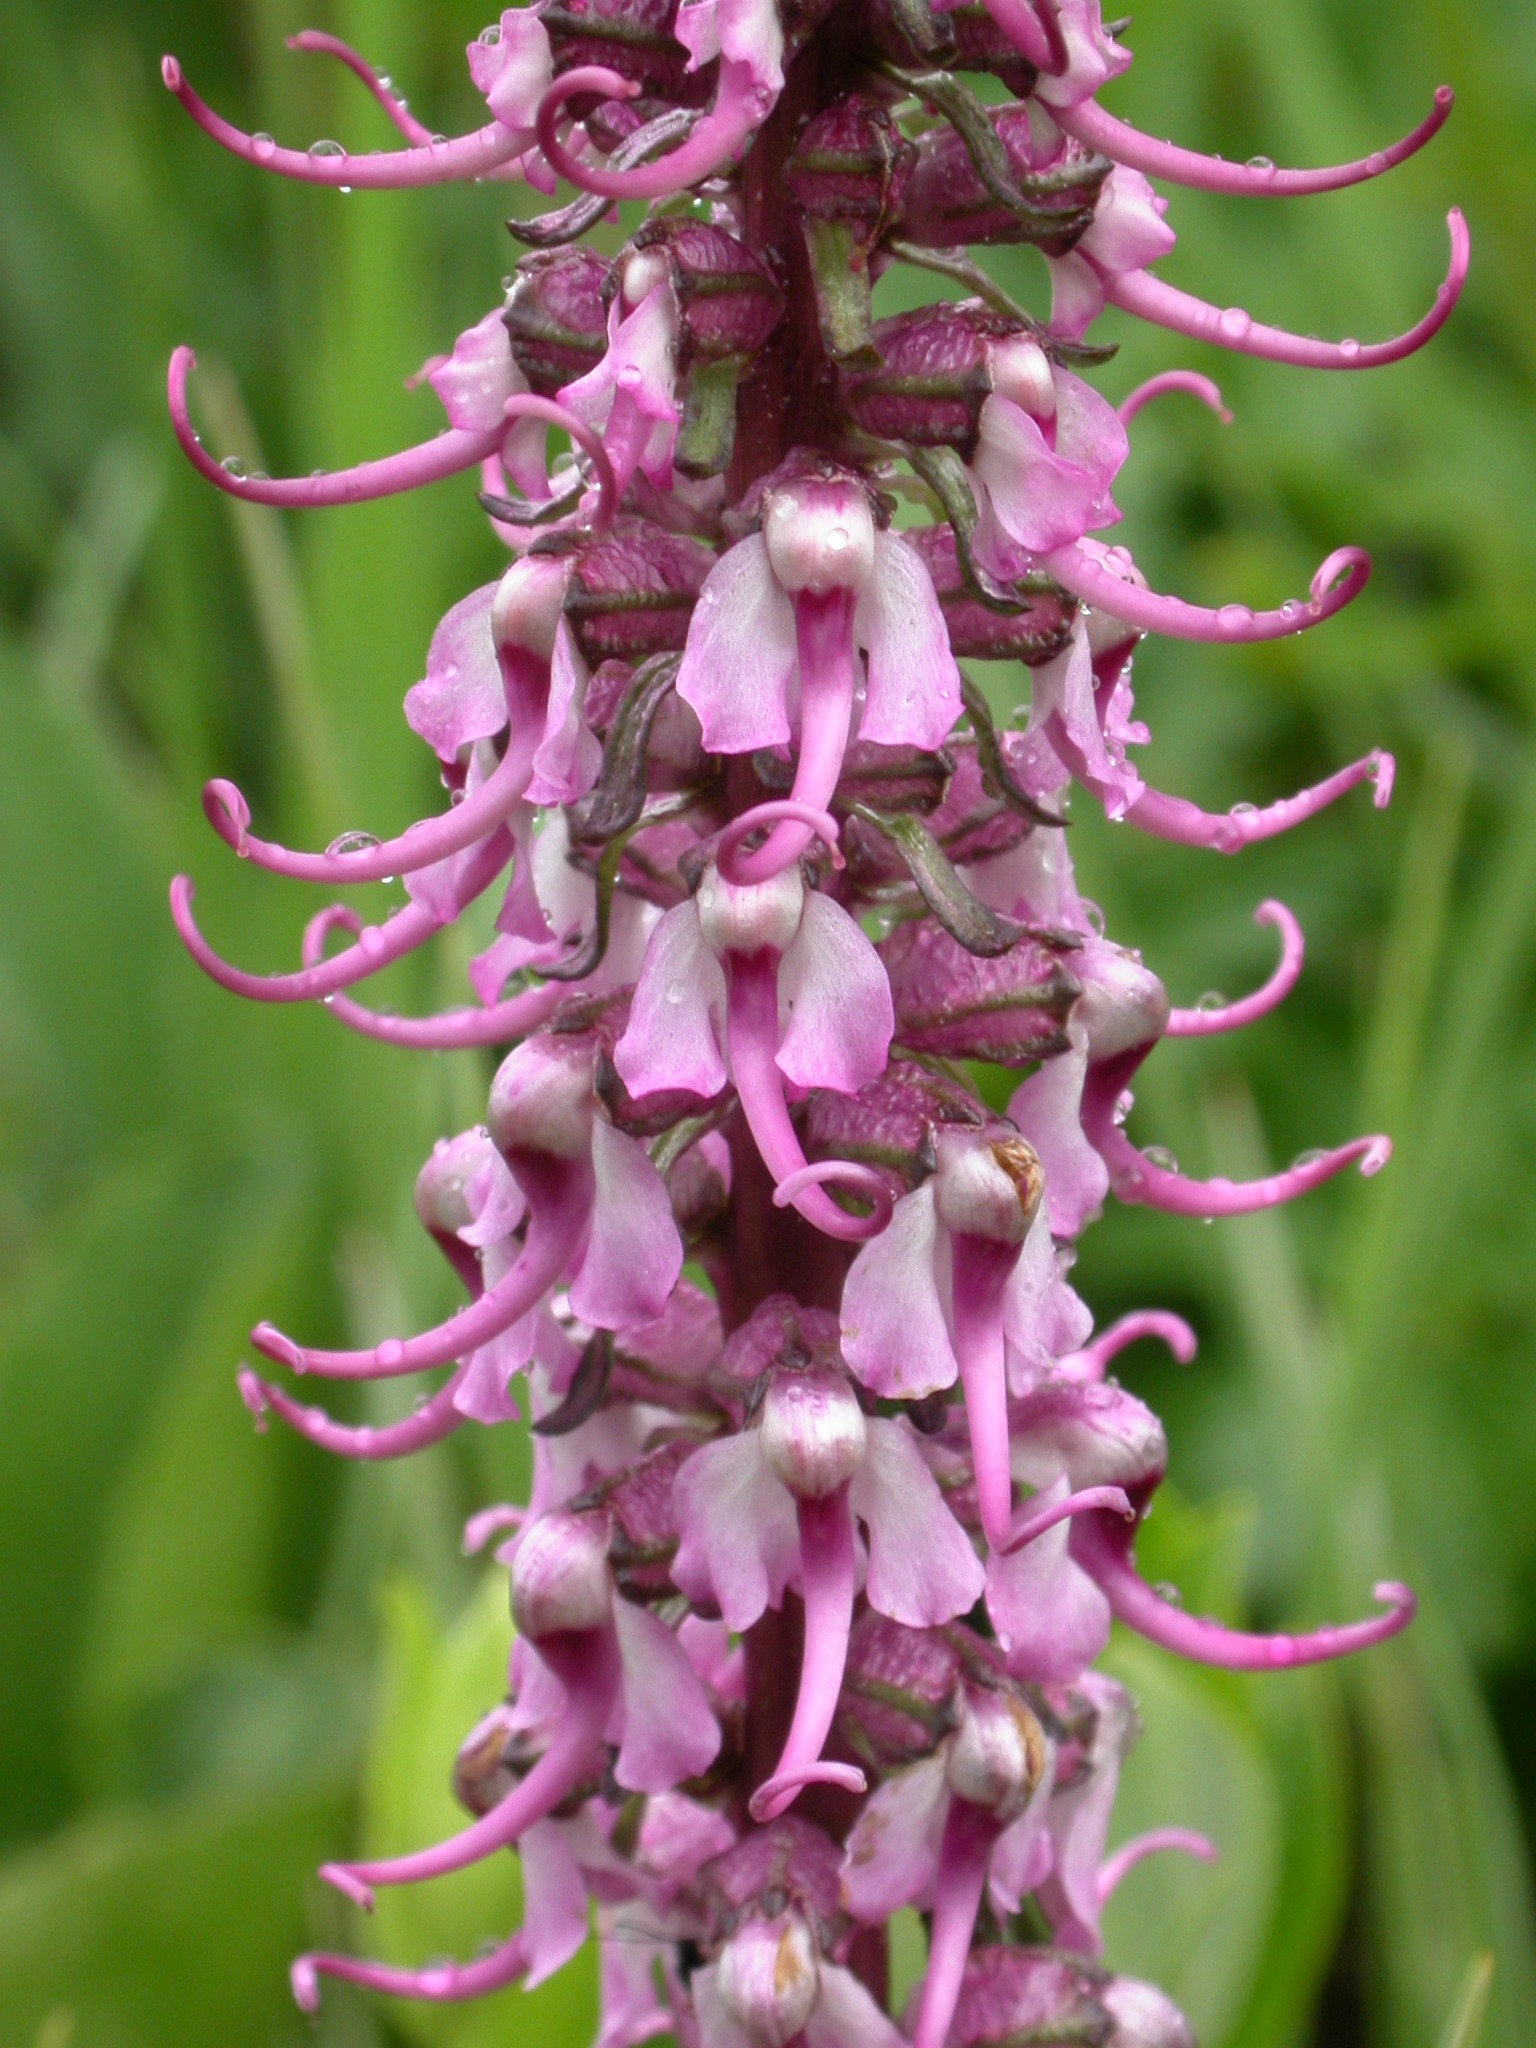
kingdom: Plantae
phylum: Tracheophyta
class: Magnoliopsida
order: Lamiales
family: Orobanchaceae
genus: Pedicularis
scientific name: Pedicularis groenlandica
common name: Elephant's-head
